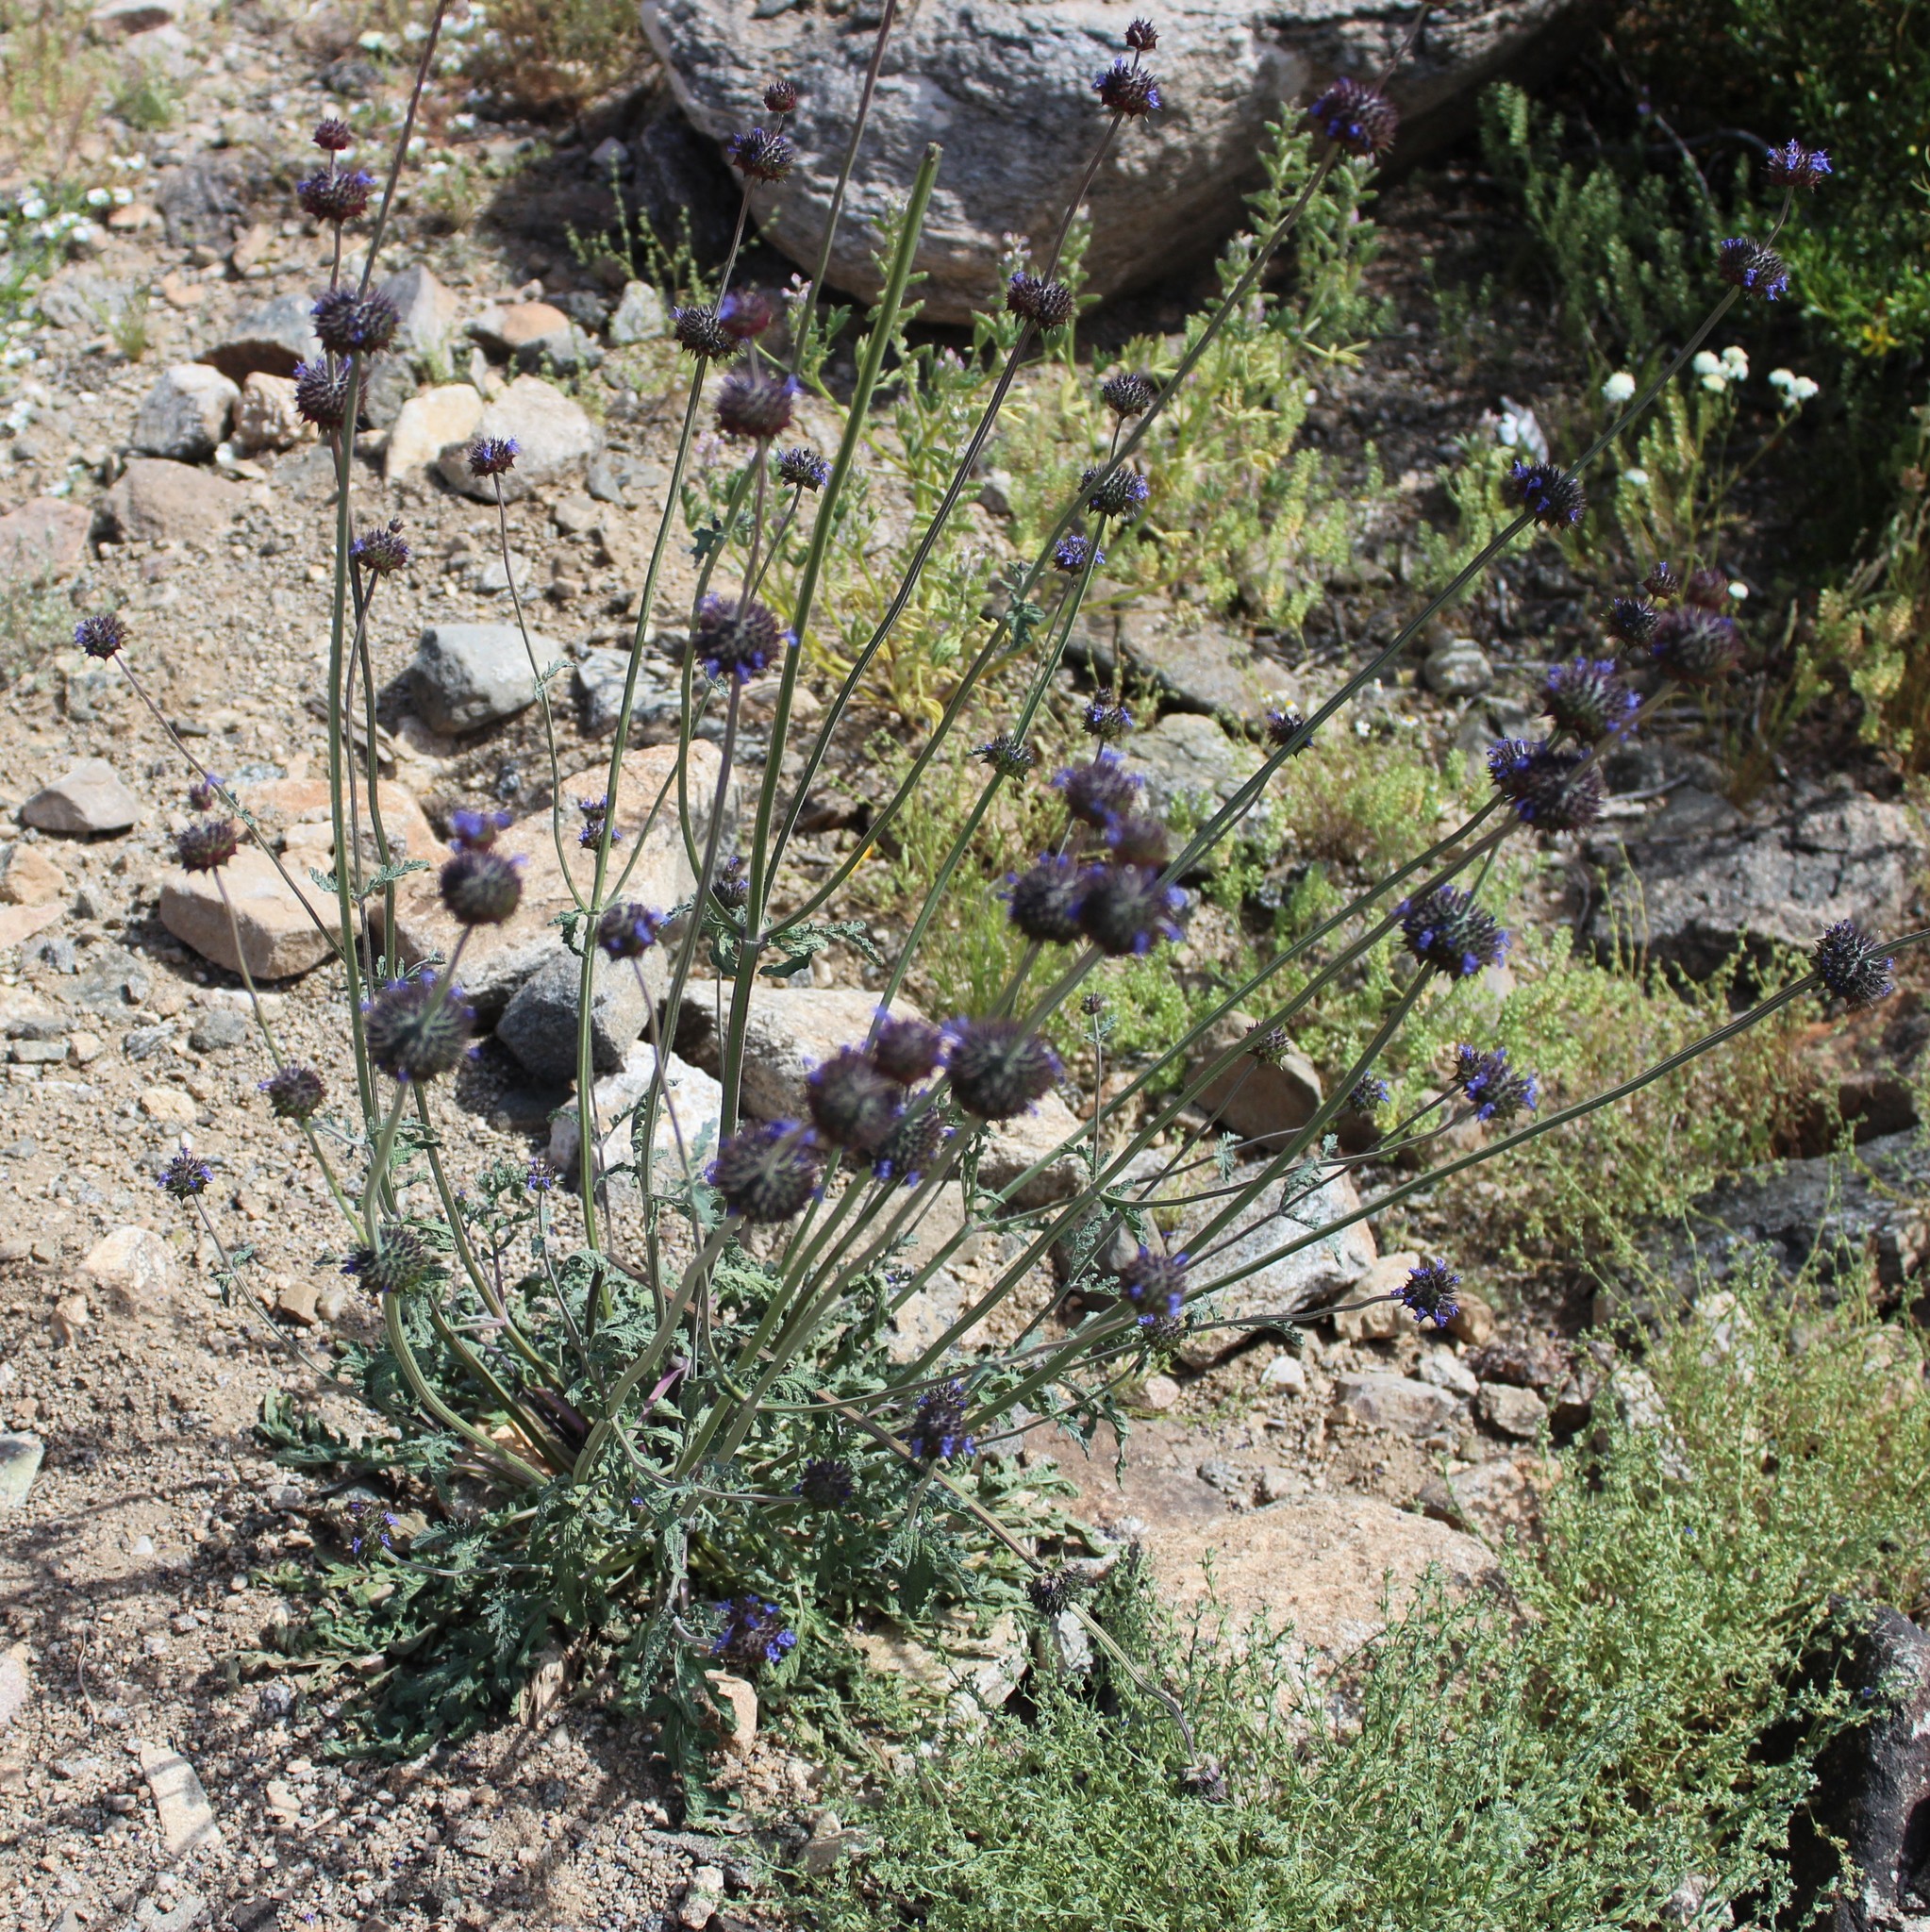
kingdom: Plantae
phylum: Tracheophyta
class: Magnoliopsida
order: Lamiales
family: Lamiaceae
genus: Salvia
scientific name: Salvia columbariae
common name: Chia
